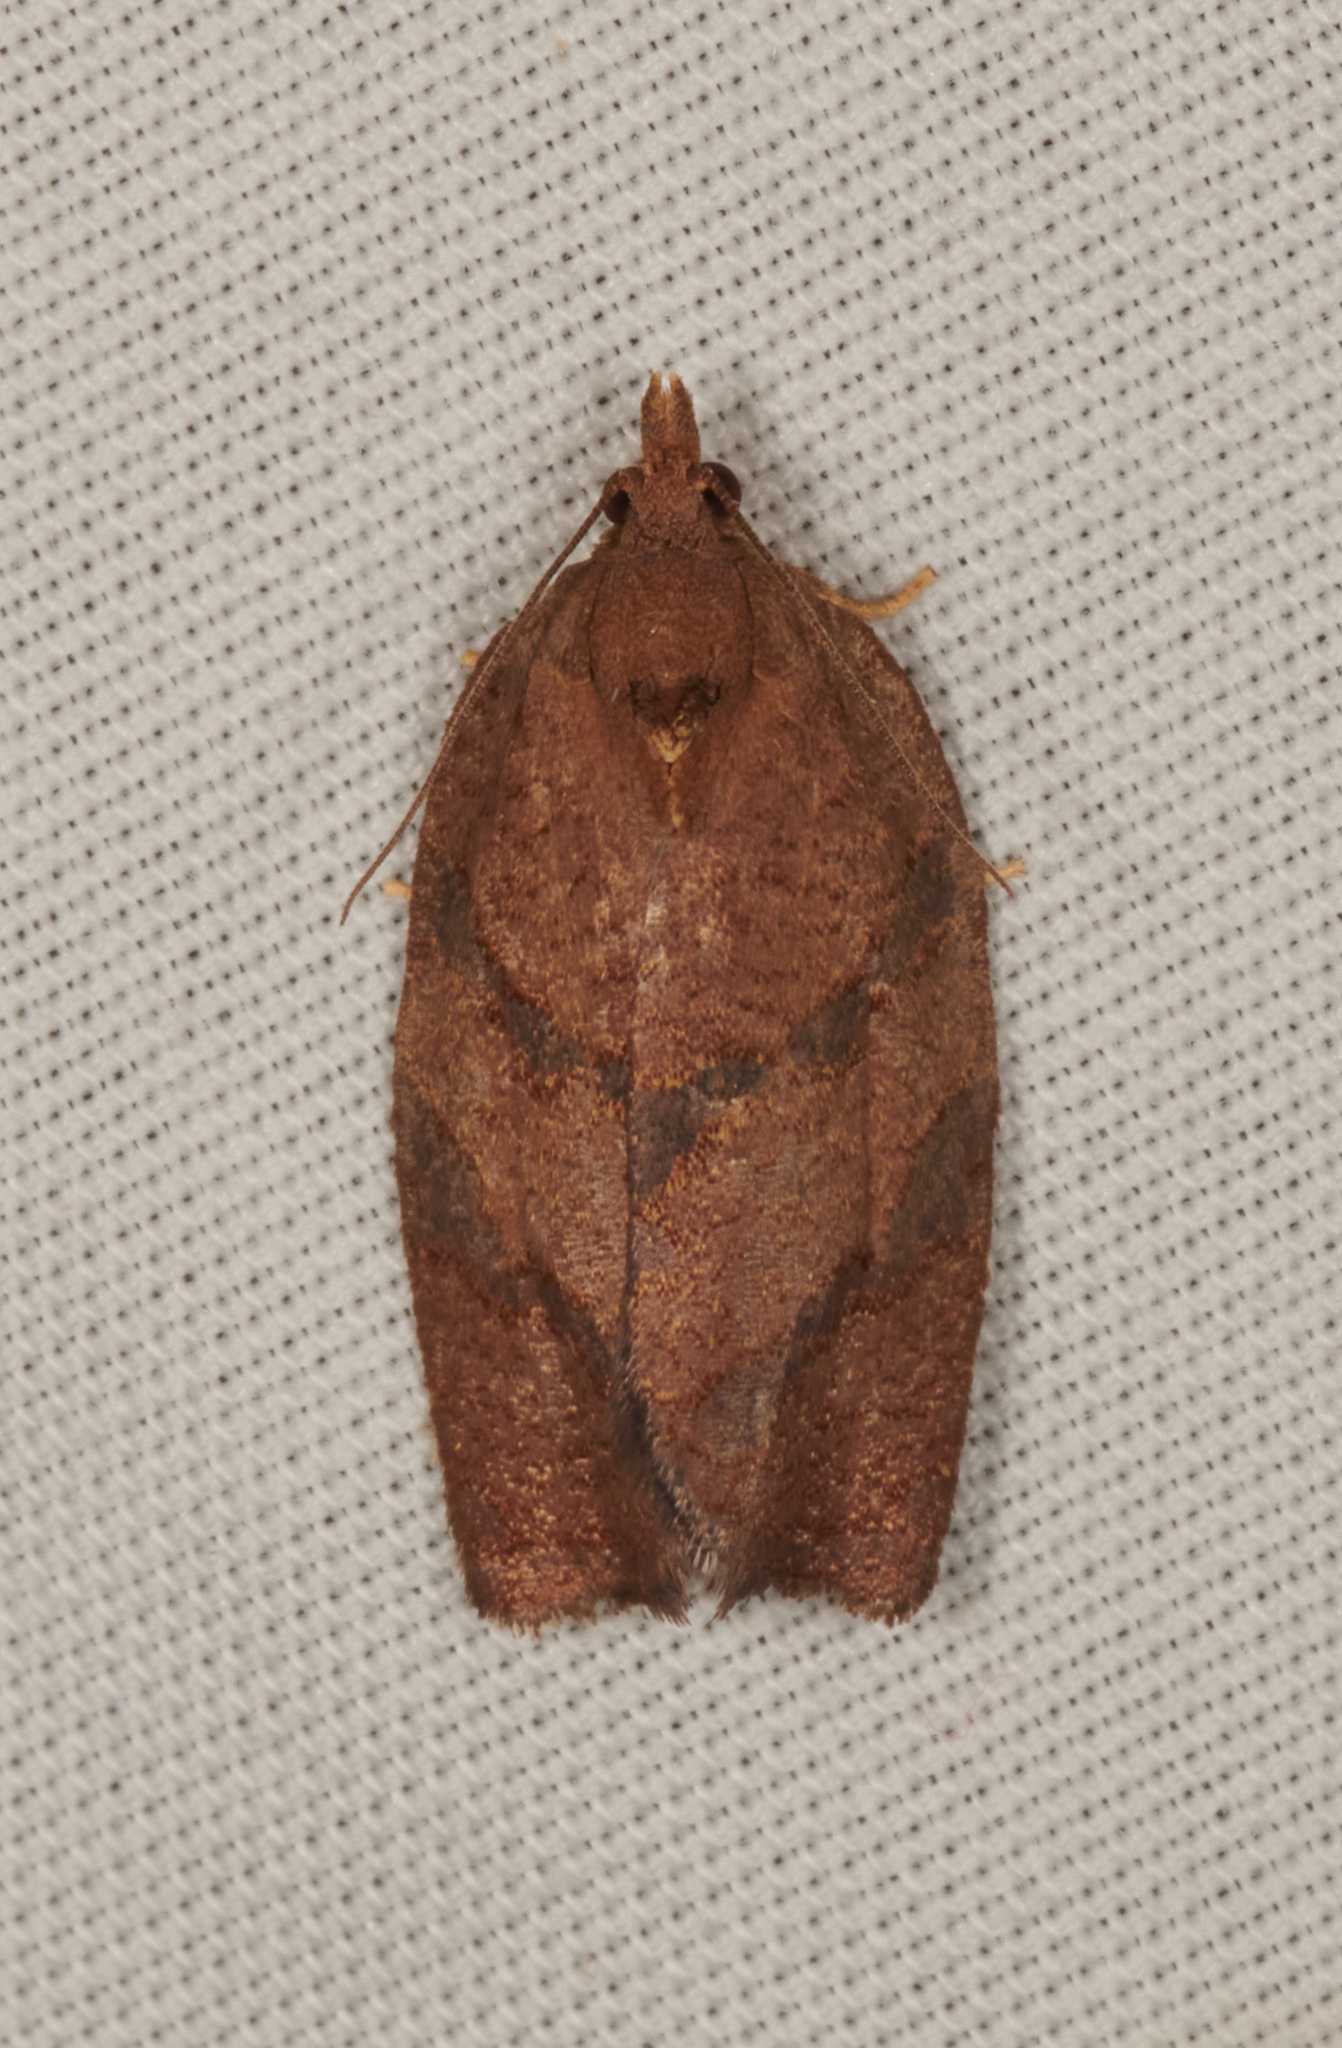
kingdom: Animalia
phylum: Arthropoda
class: Insecta
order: Lepidoptera
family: Tortricidae
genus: Argyrotaenia
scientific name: Argyrotaenia juglandana
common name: Hickory leafroller moth
